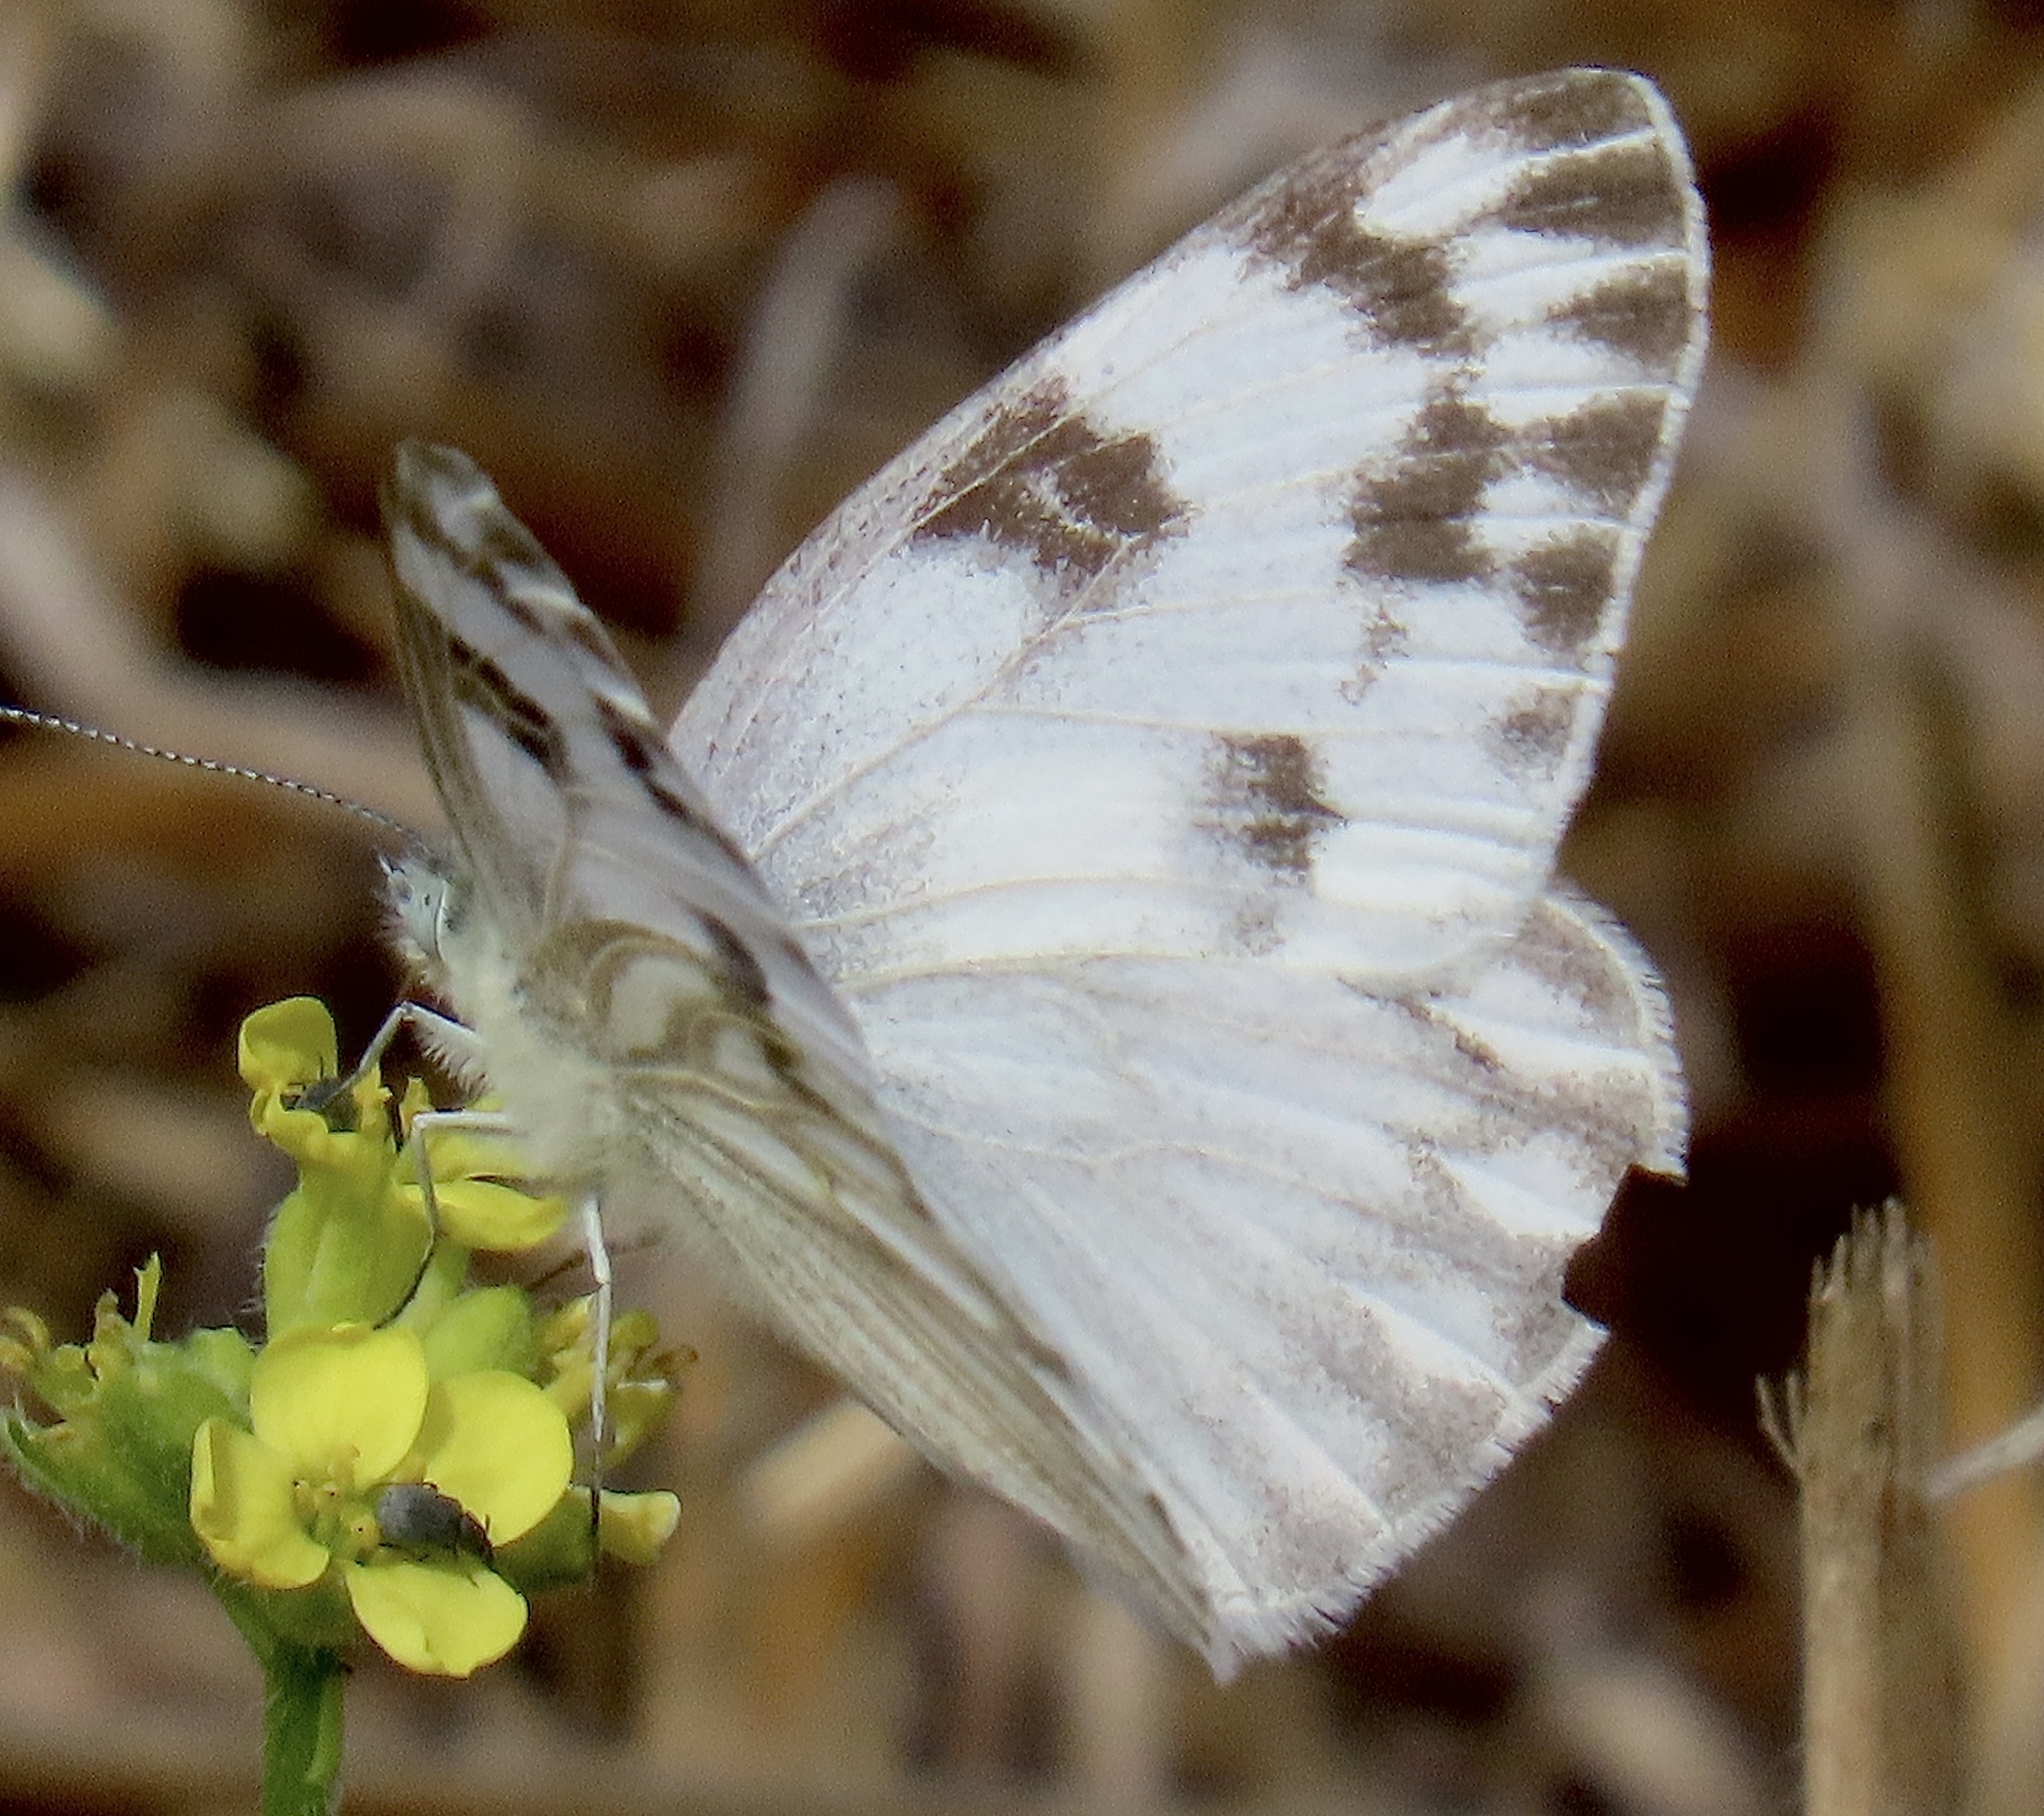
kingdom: Animalia
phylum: Arthropoda
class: Insecta
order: Lepidoptera
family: Pieridae
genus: Pontia
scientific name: Pontia protodice
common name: Checkered white
